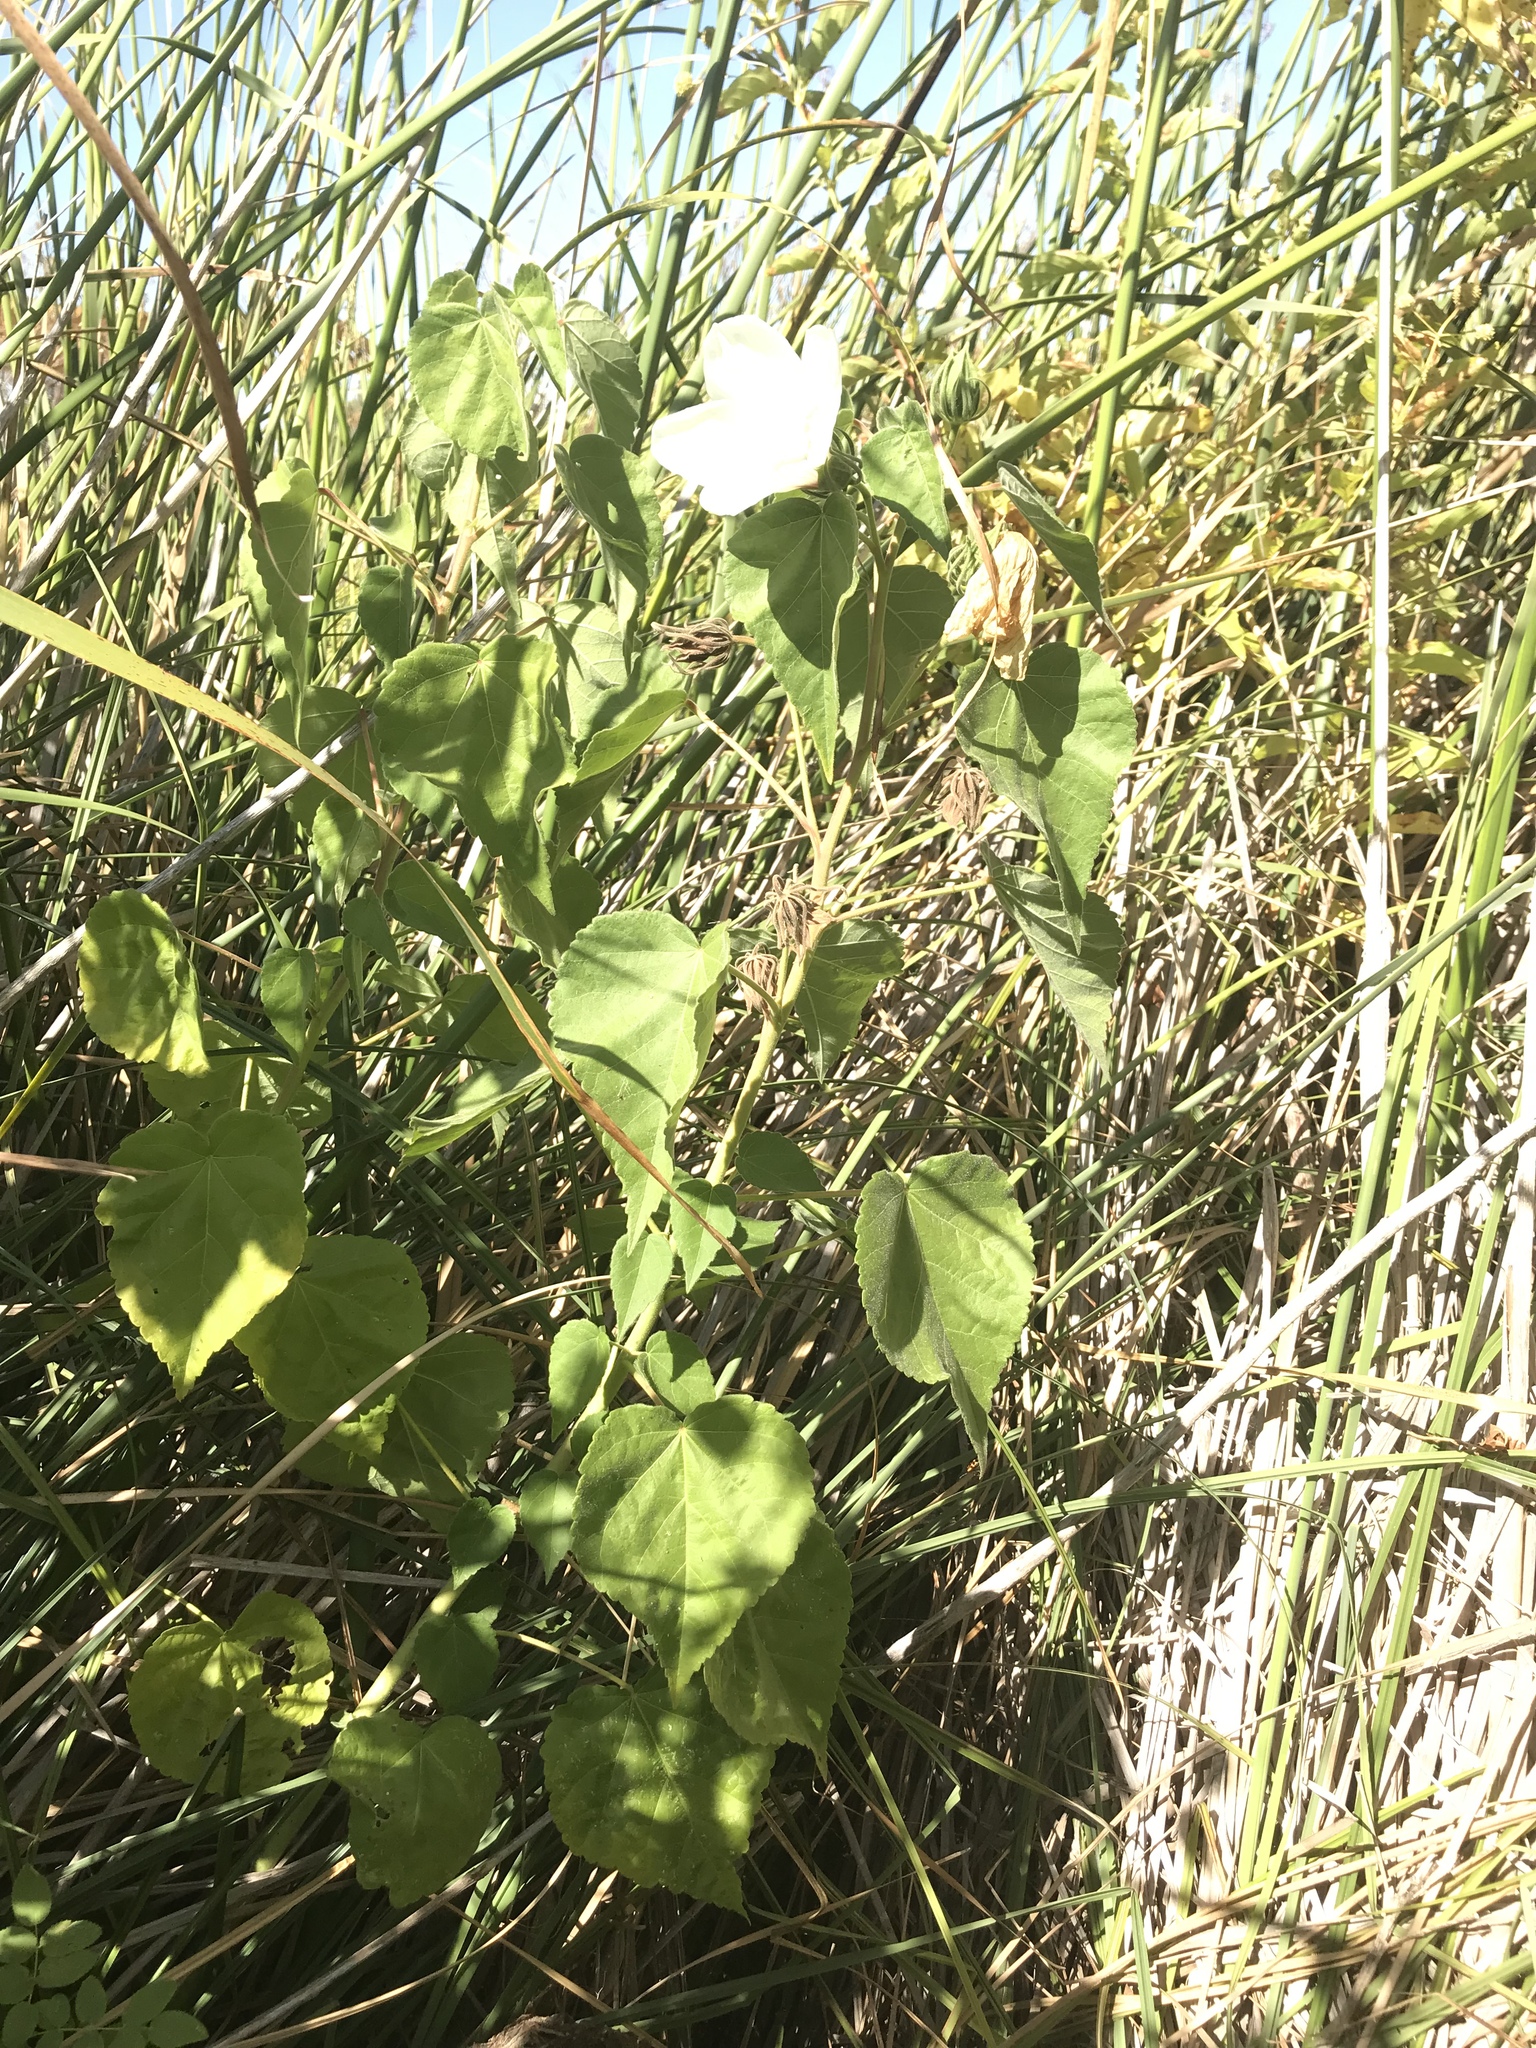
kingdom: Plantae
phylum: Tracheophyta
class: Magnoliopsida
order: Malvales
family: Malvaceae
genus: Hibiscus
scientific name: Hibiscus moscheutos
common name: Common rose-mallow
